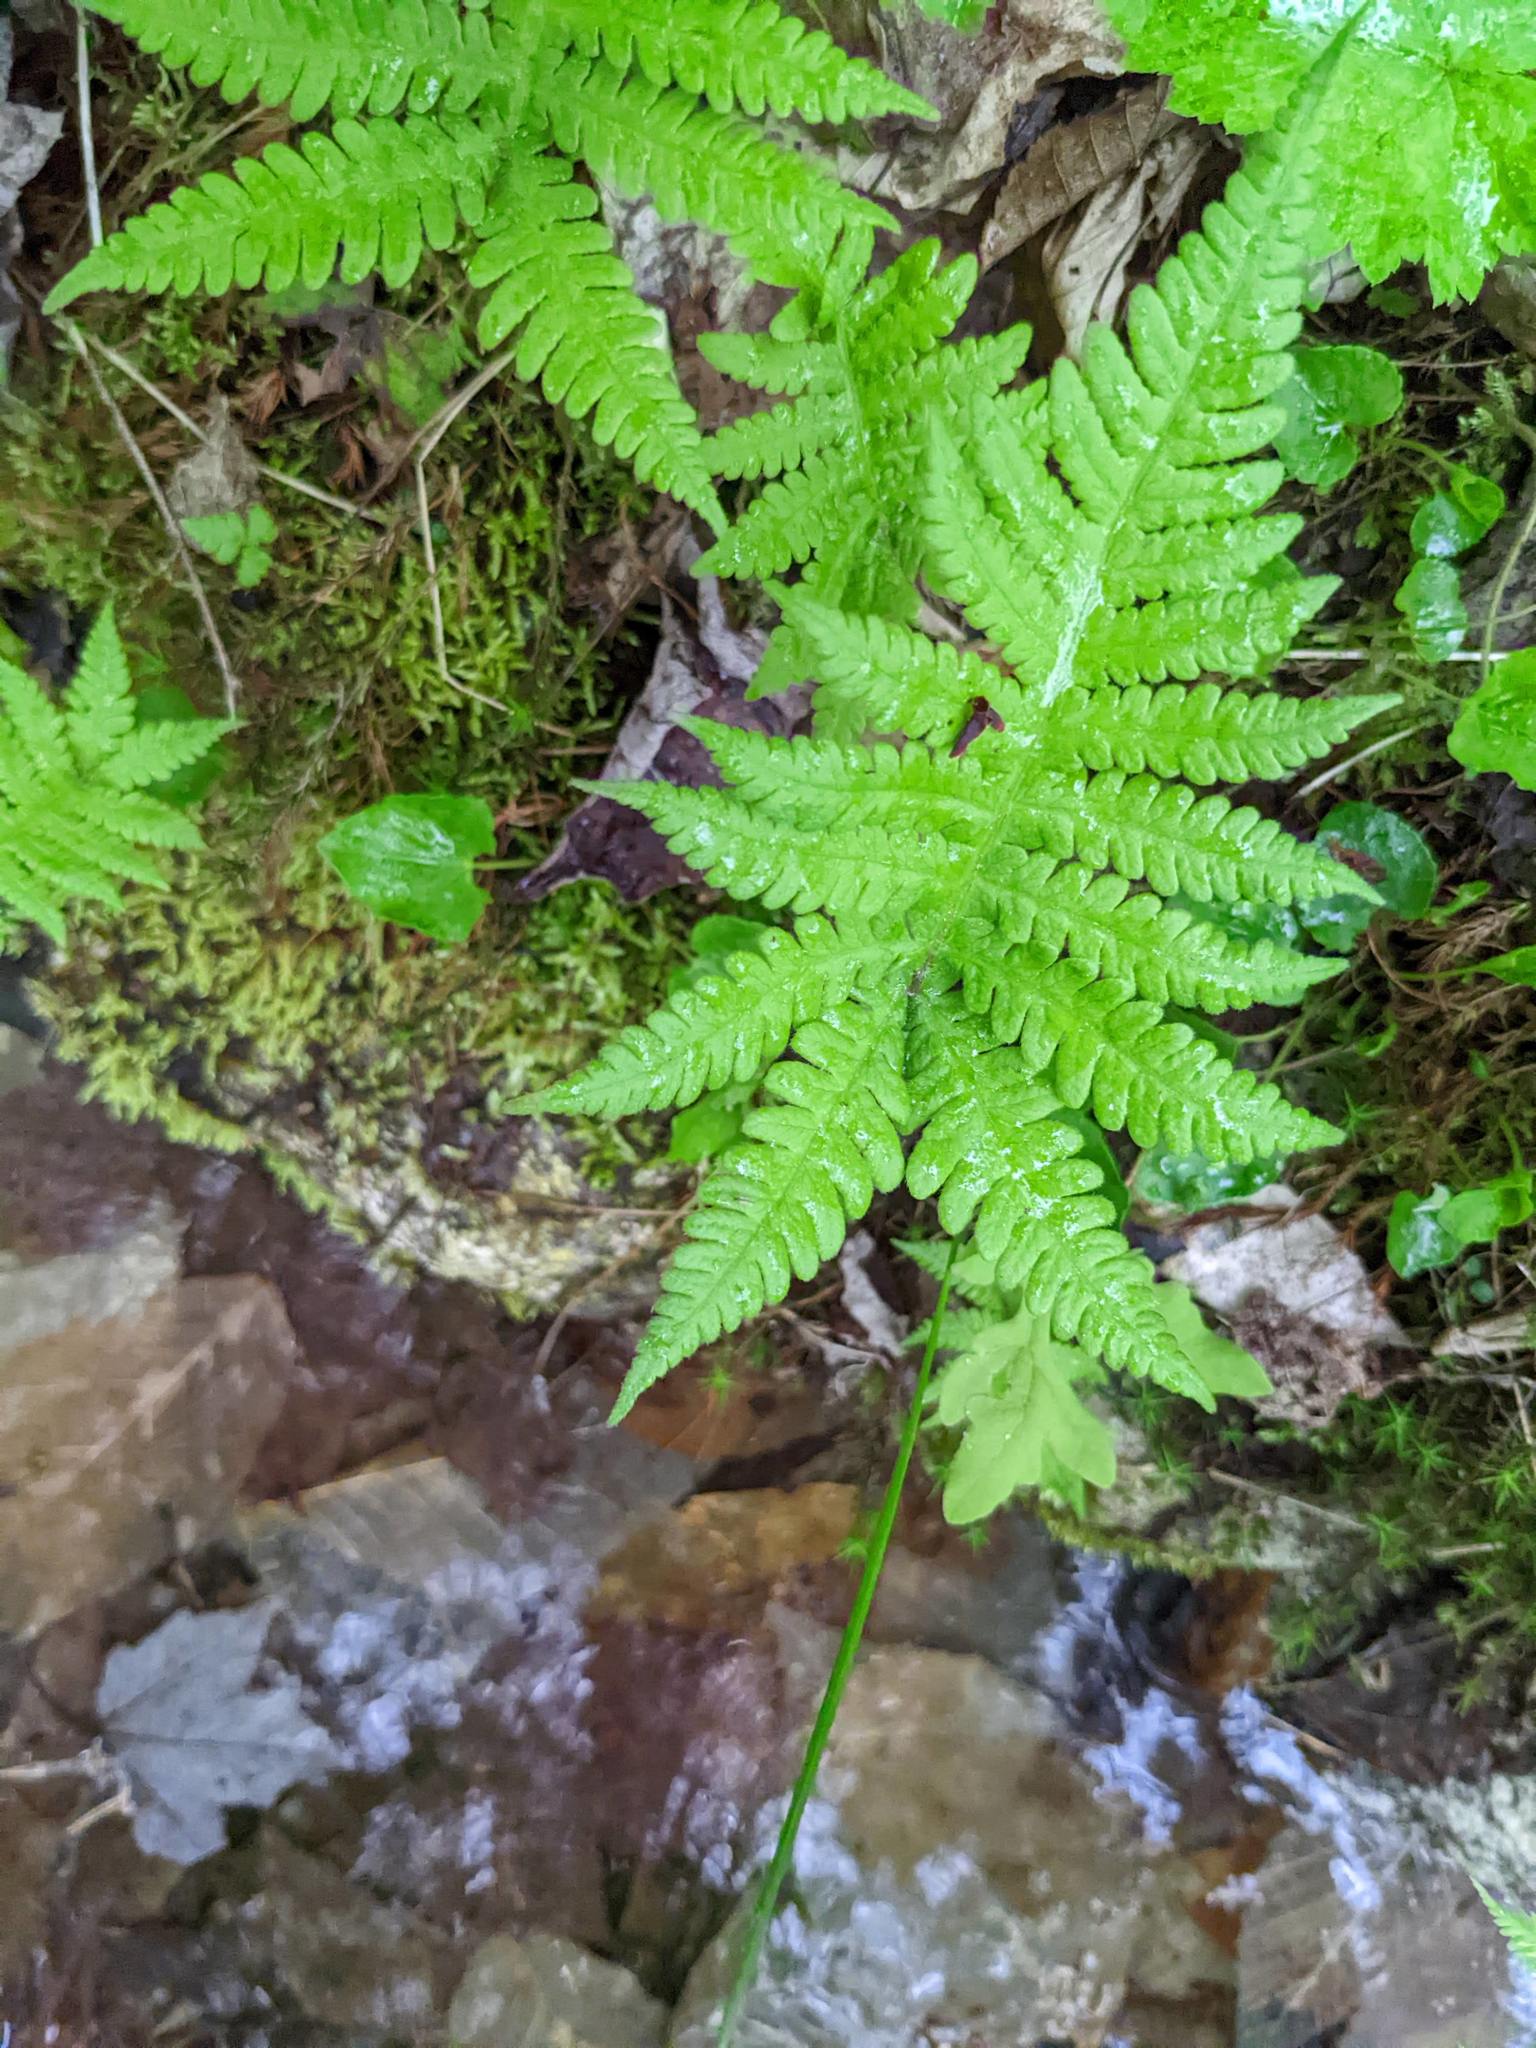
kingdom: Plantae
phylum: Tracheophyta
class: Polypodiopsida
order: Polypodiales
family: Thelypteridaceae
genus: Phegopteris
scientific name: Phegopteris connectilis
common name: Beech fern
